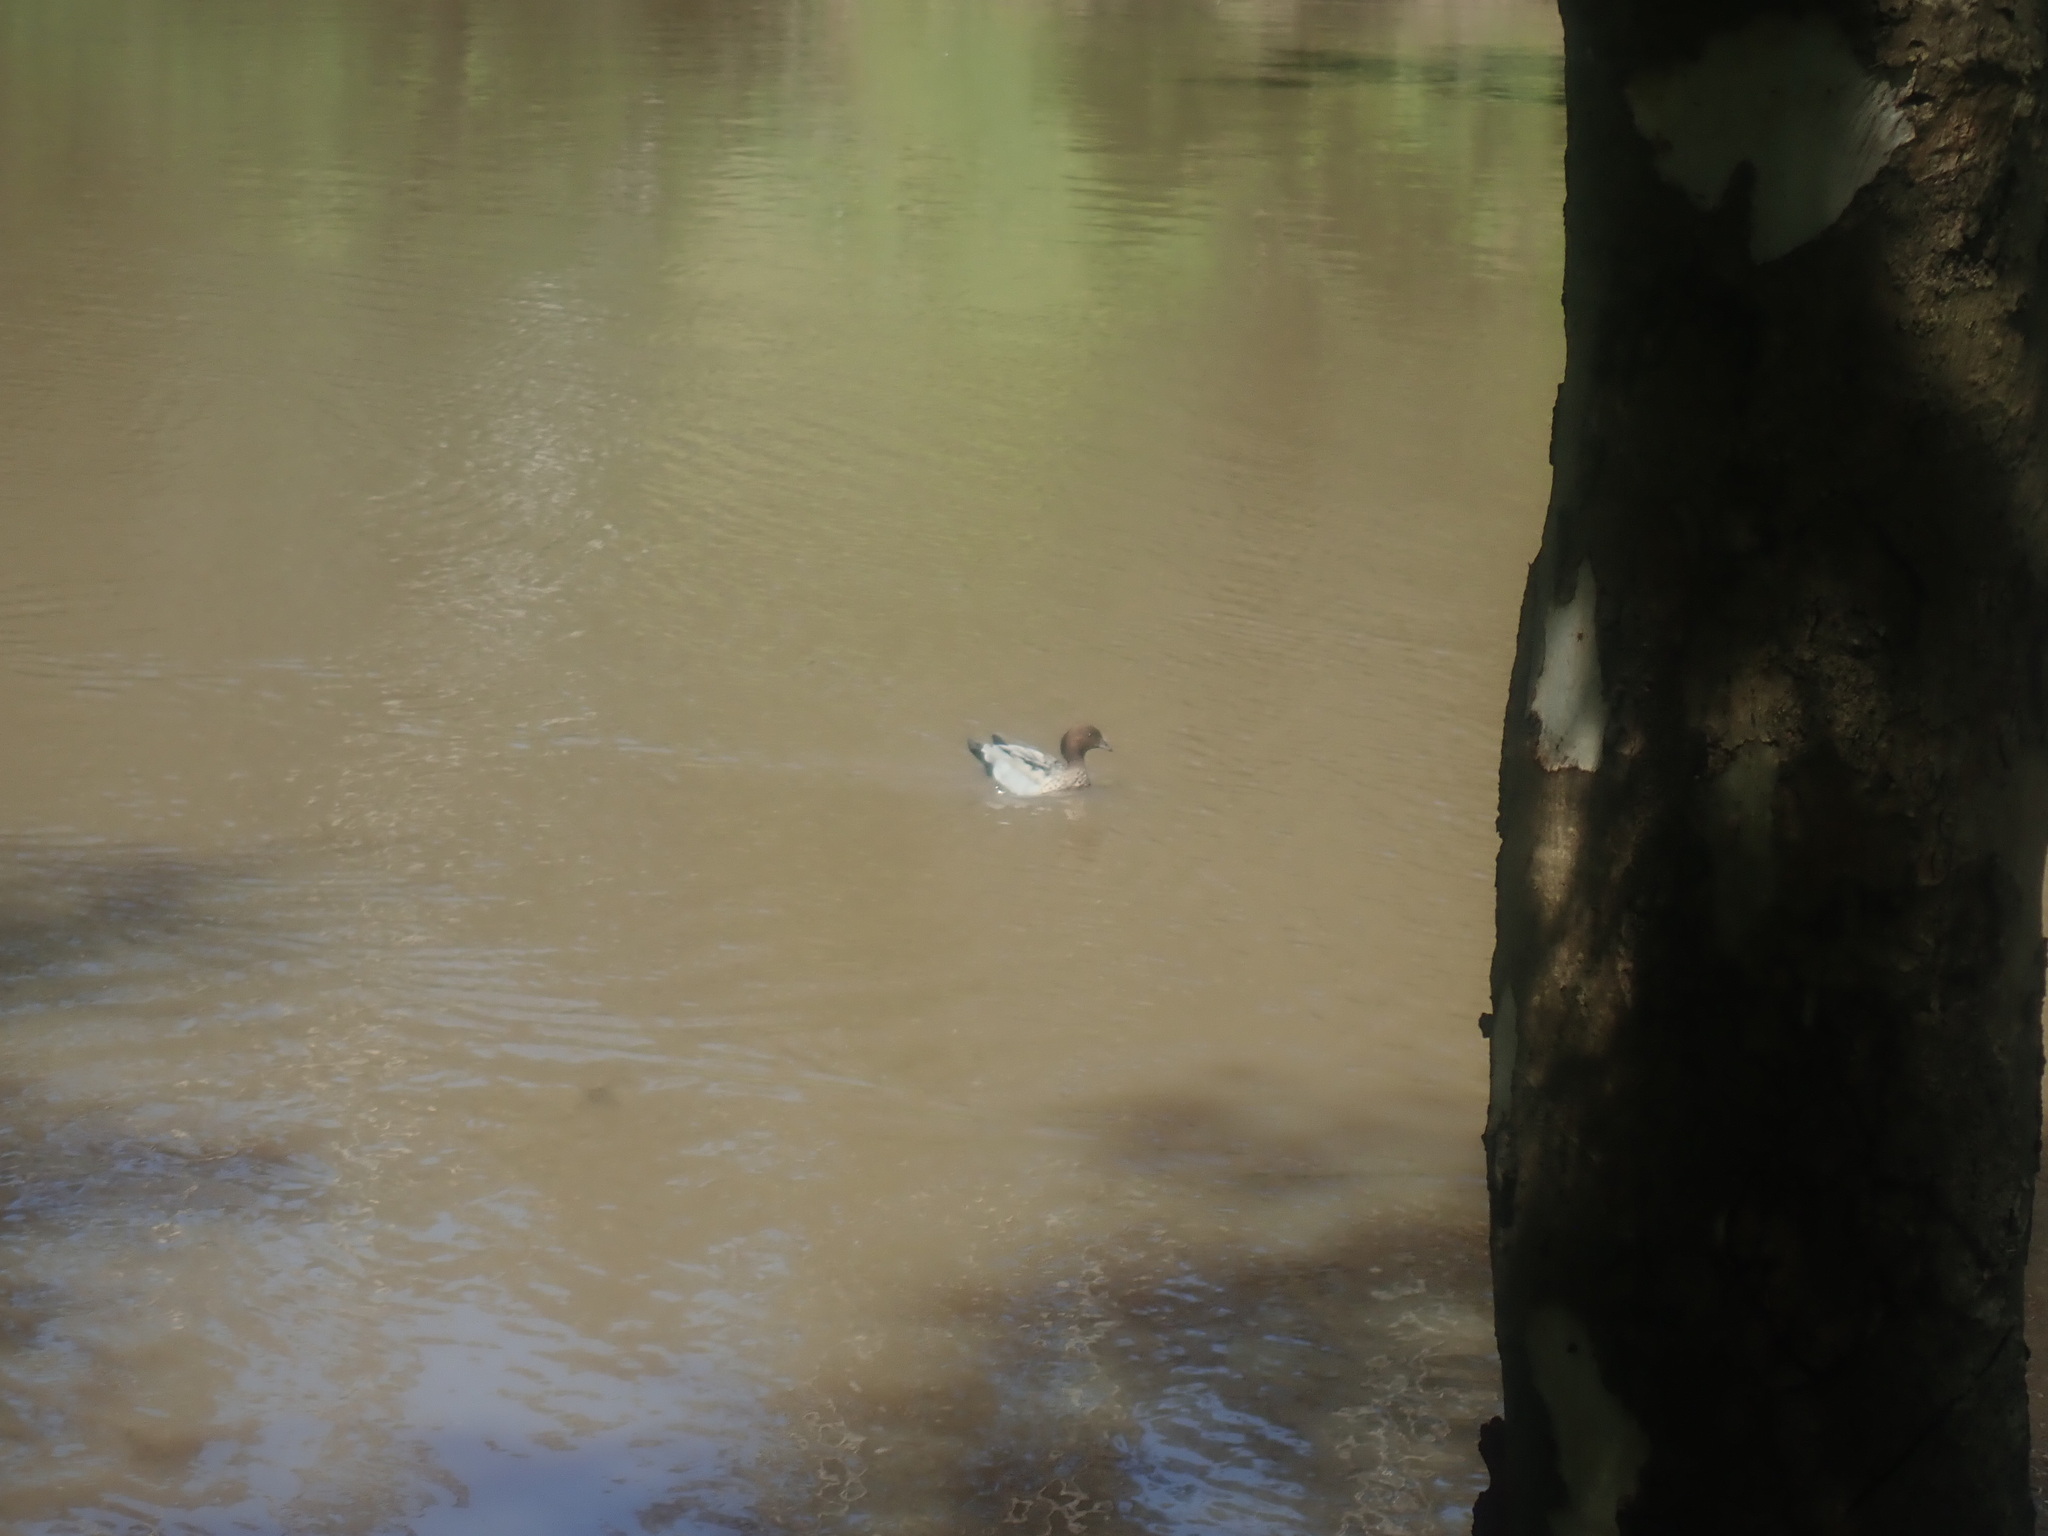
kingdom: Animalia
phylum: Chordata
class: Aves
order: Anseriformes
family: Anatidae
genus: Chenonetta
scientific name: Chenonetta jubata
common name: Maned duck
